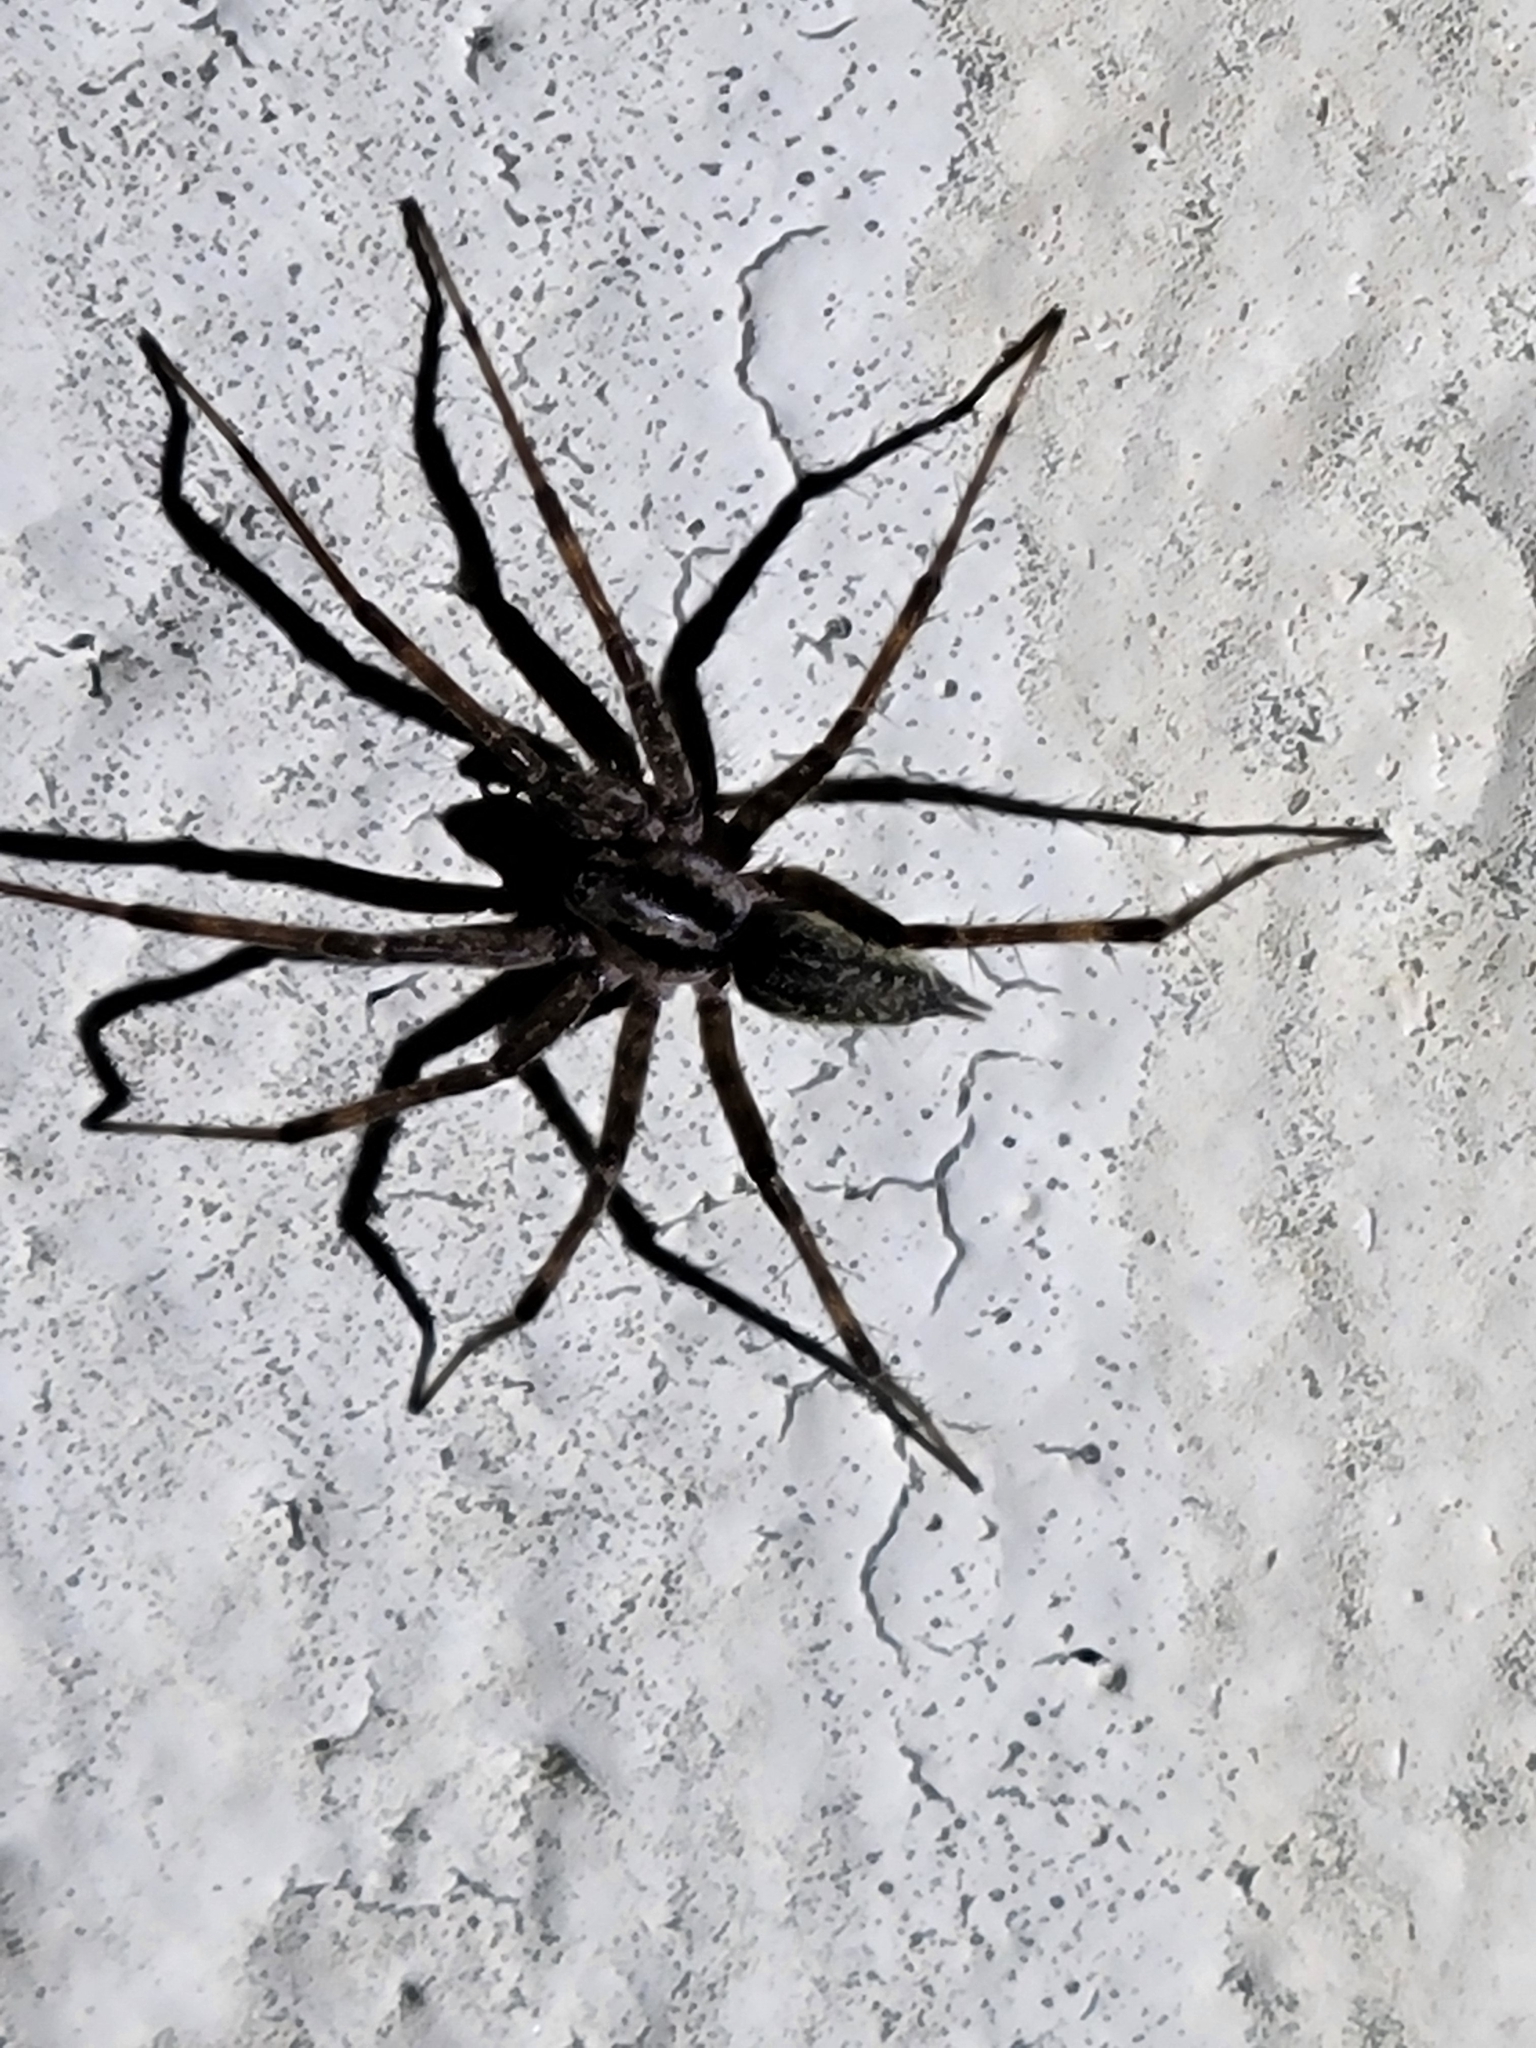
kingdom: Animalia
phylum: Arthropoda
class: Arachnida
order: Araneae
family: Agelenidae
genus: Agelenopsis
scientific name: Agelenopsis
